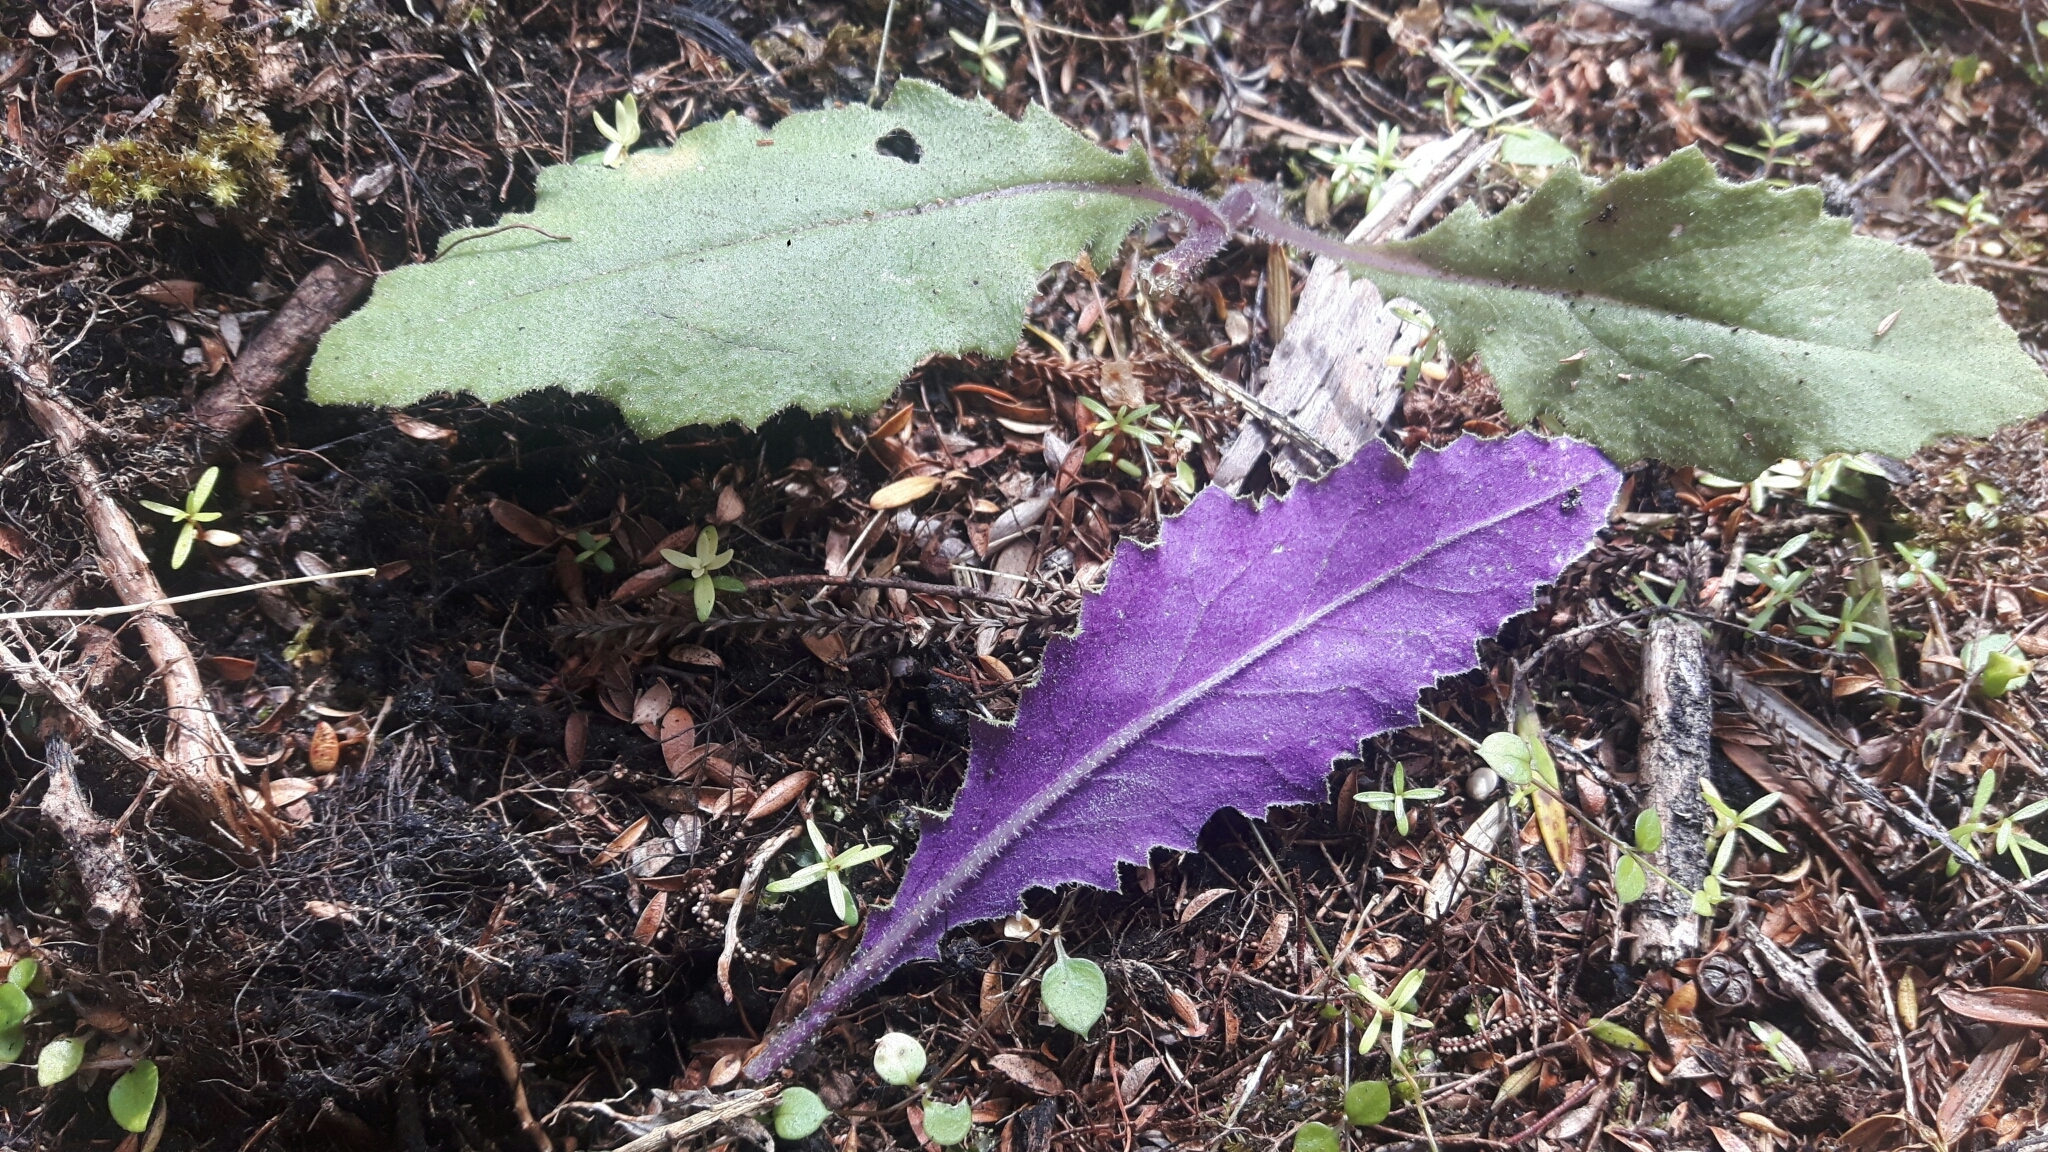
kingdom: Plantae
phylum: Tracheophyta
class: Magnoliopsida
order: Asterales
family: Asteraceae
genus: Senecio
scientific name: Senecio minimus
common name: Toothed fireweed
